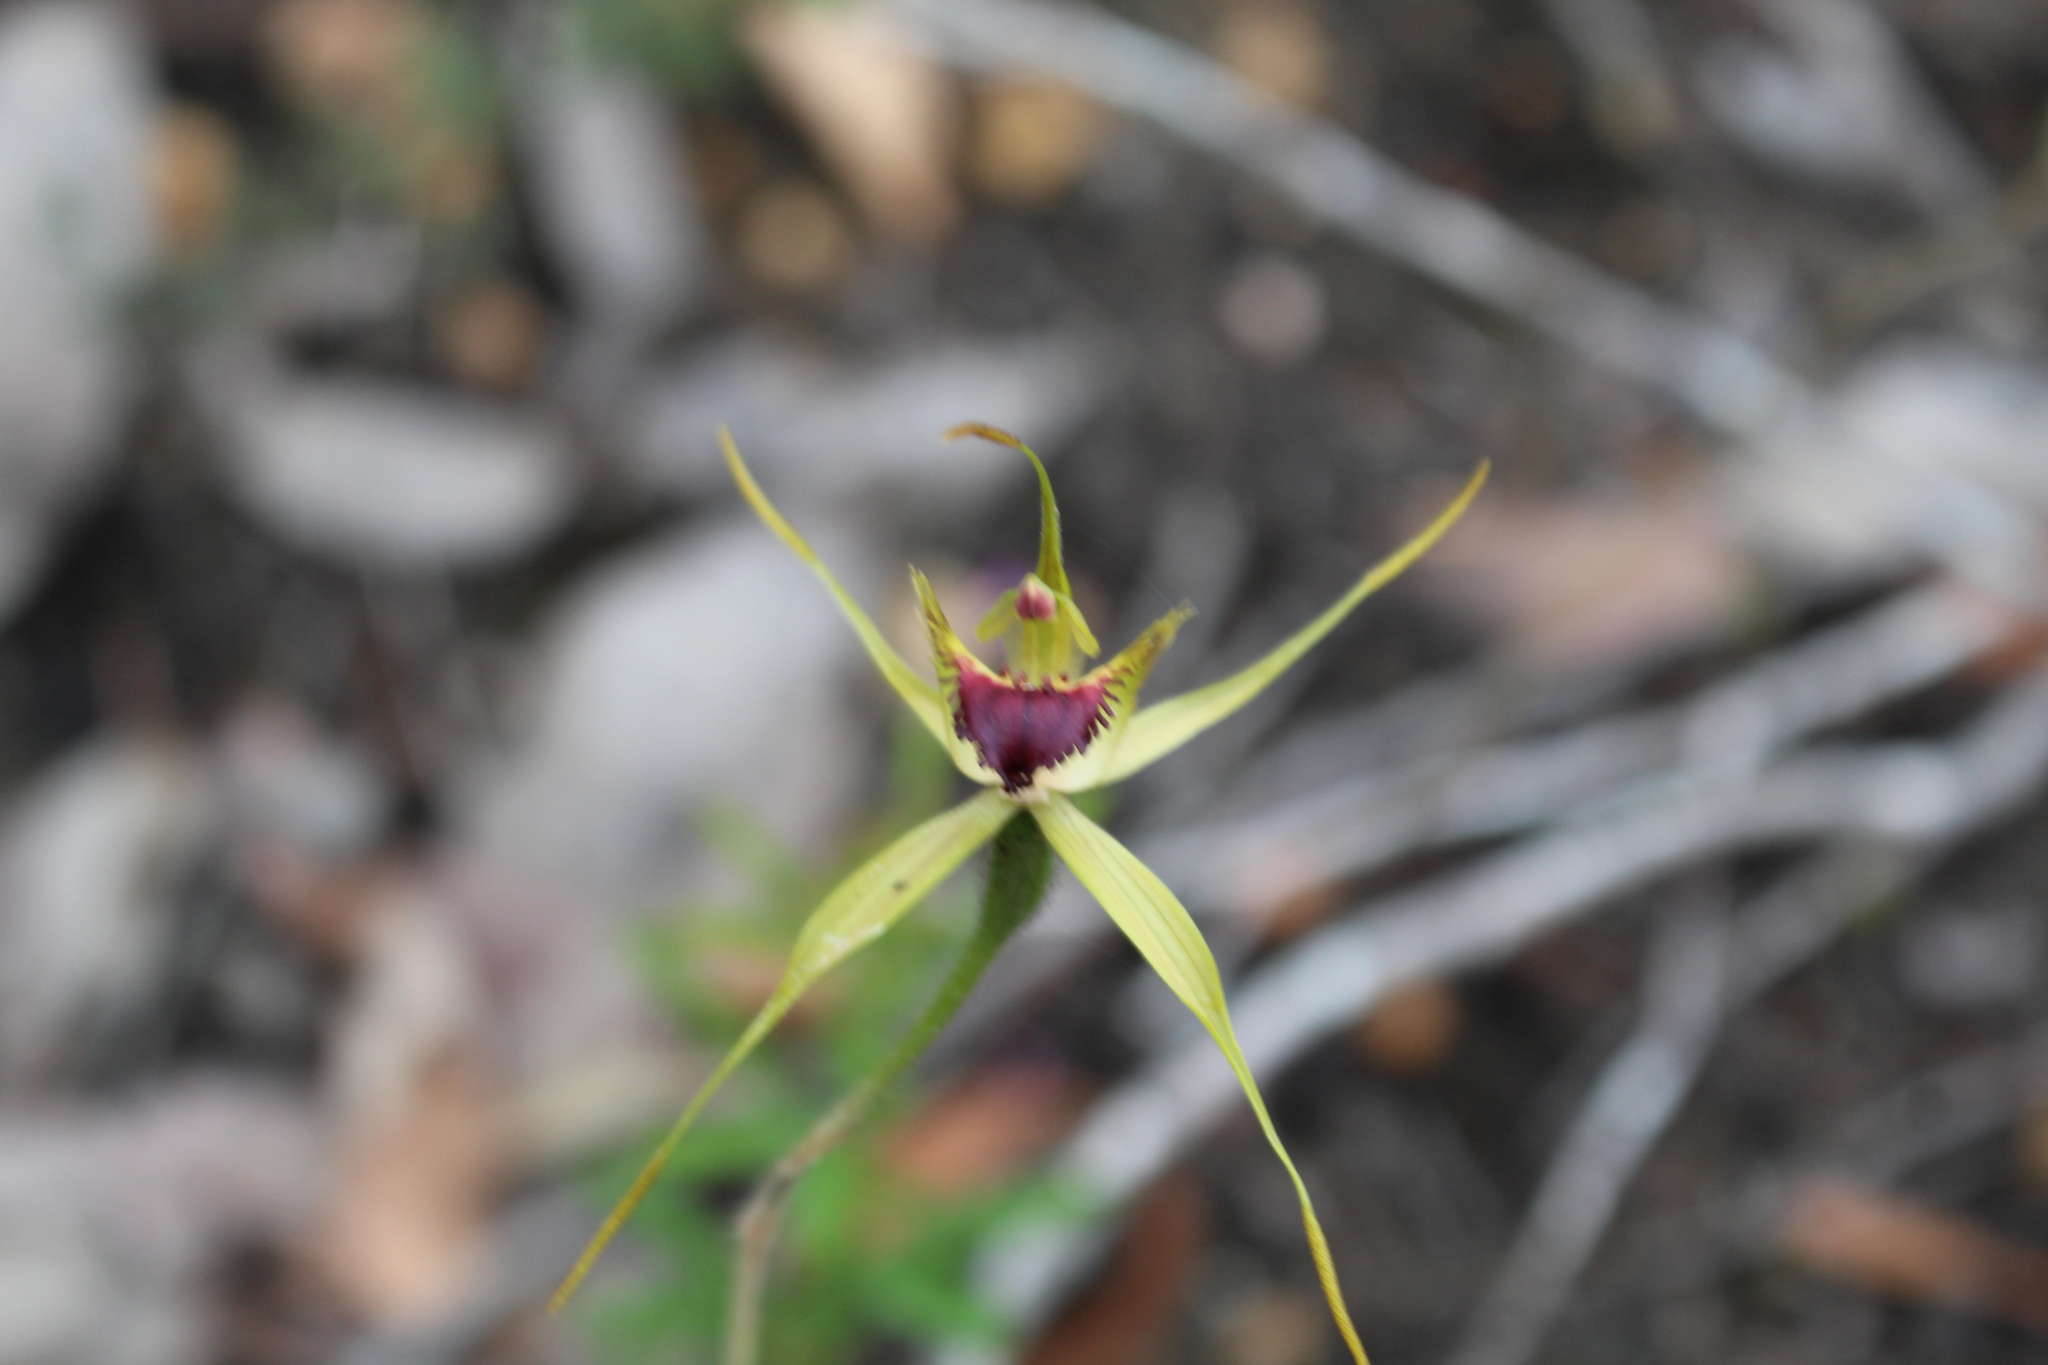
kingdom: Plantae
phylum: Tracheophyta
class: Liliopsida
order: Asparagales
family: Orchidaceae
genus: Caladenia
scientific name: Caladenia brownii
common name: Kari spider orchid
